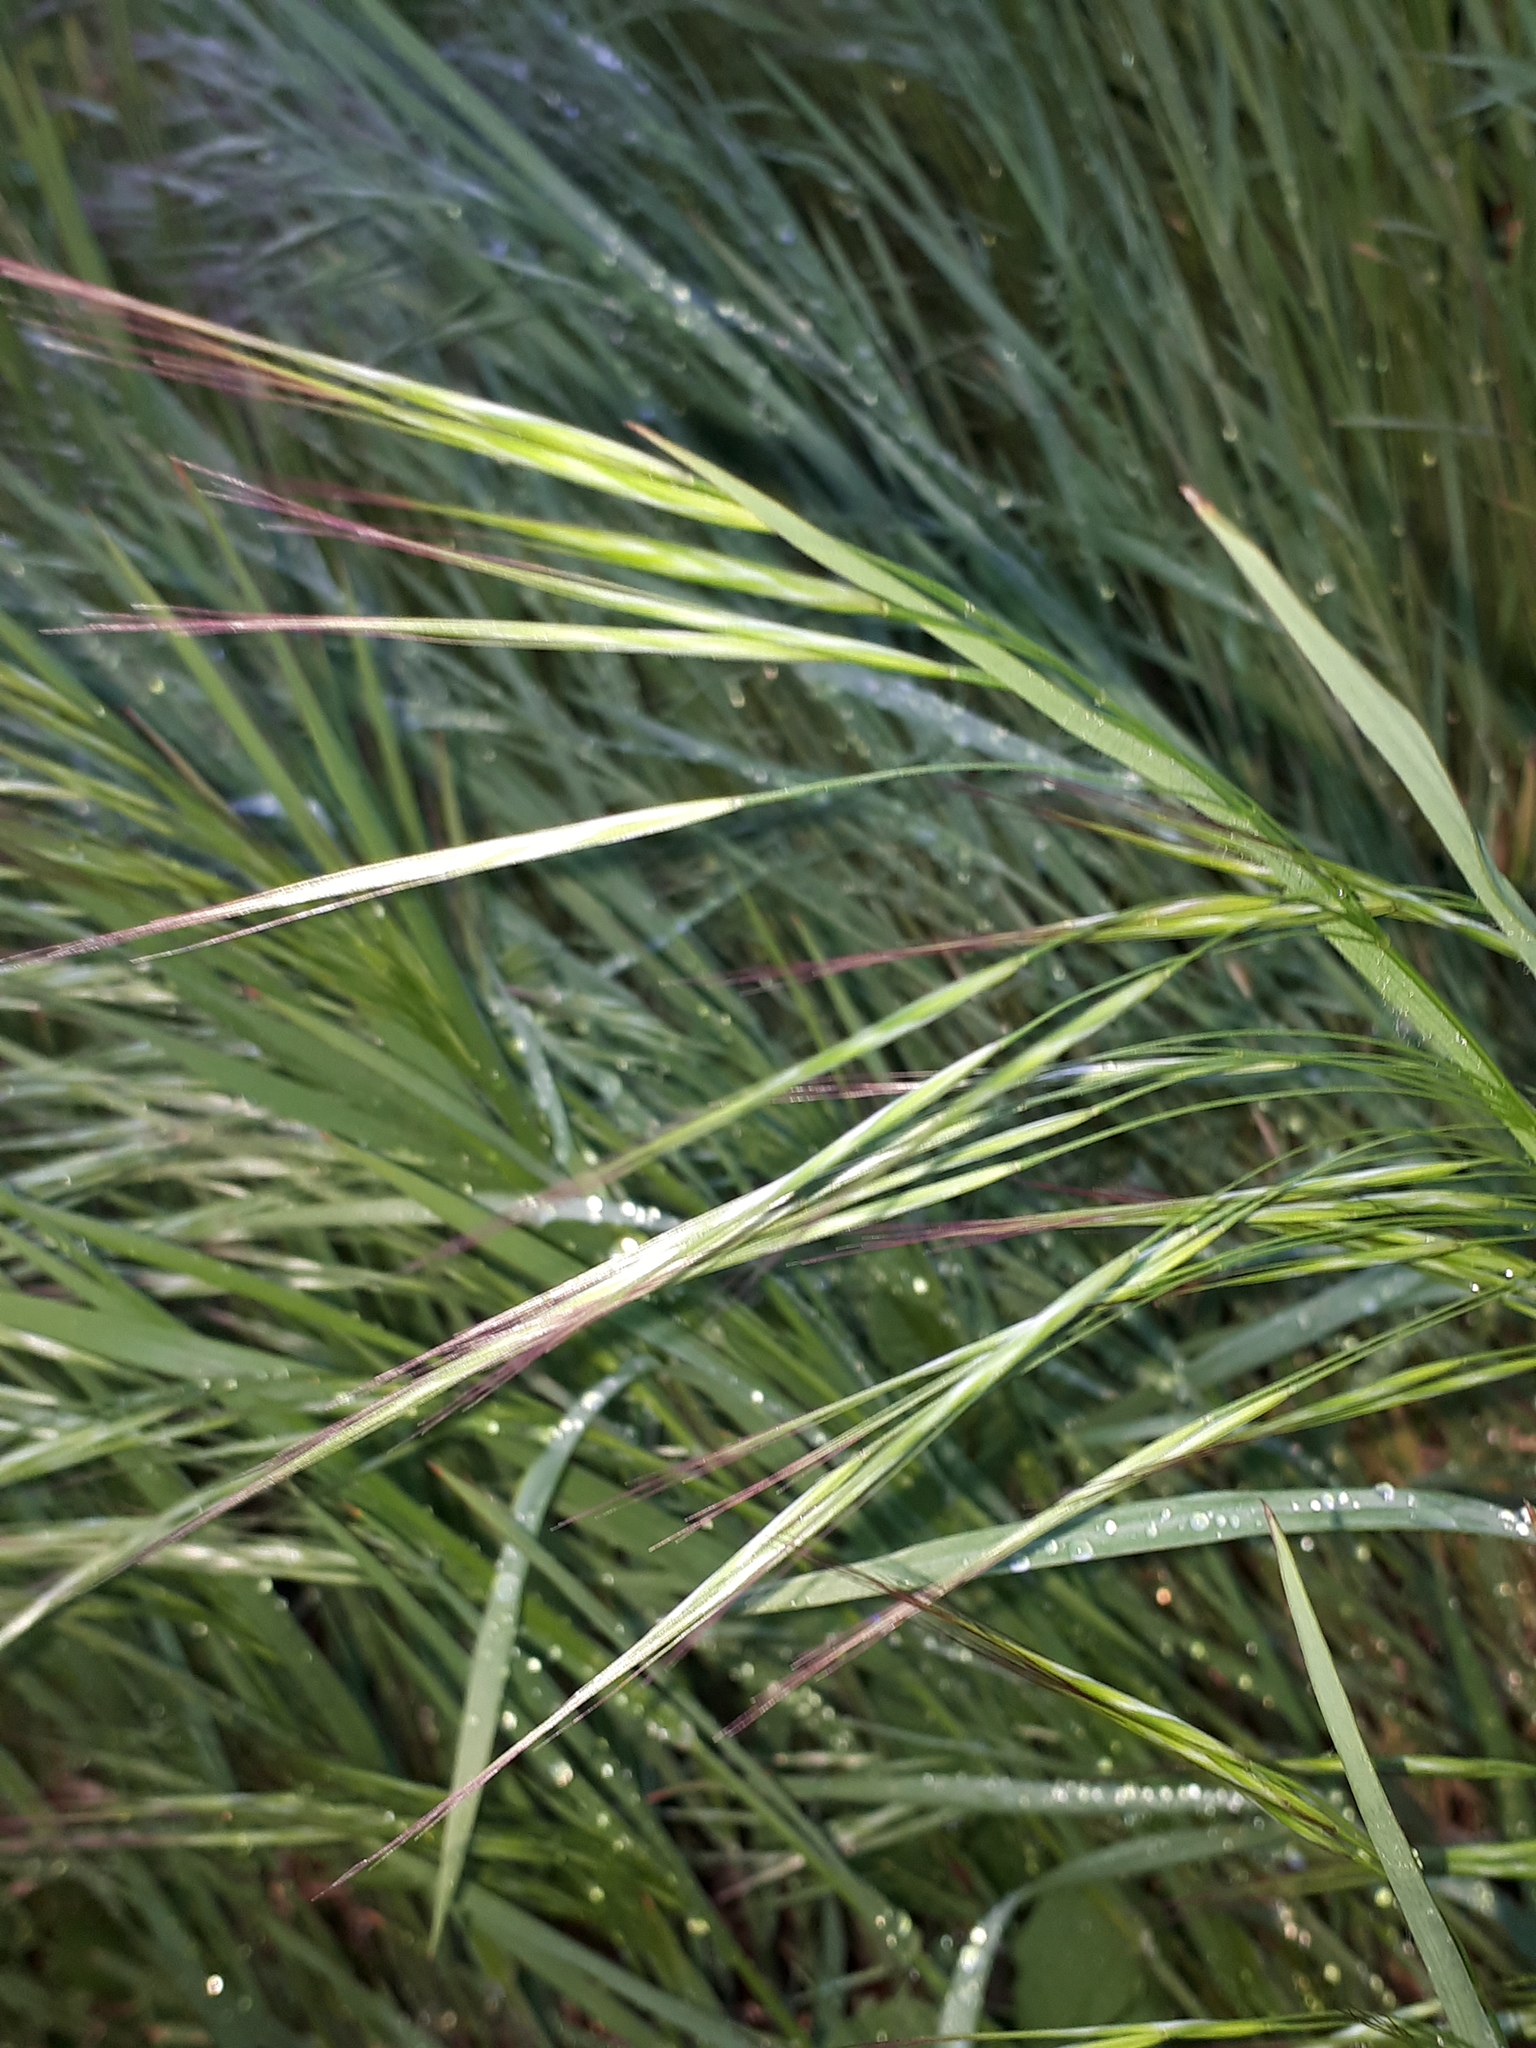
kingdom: Plantae
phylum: Tracheophyta
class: Liliopsida
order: Poales
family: Poaceae
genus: Bromus
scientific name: Bromus sterilis
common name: Poverty brome
